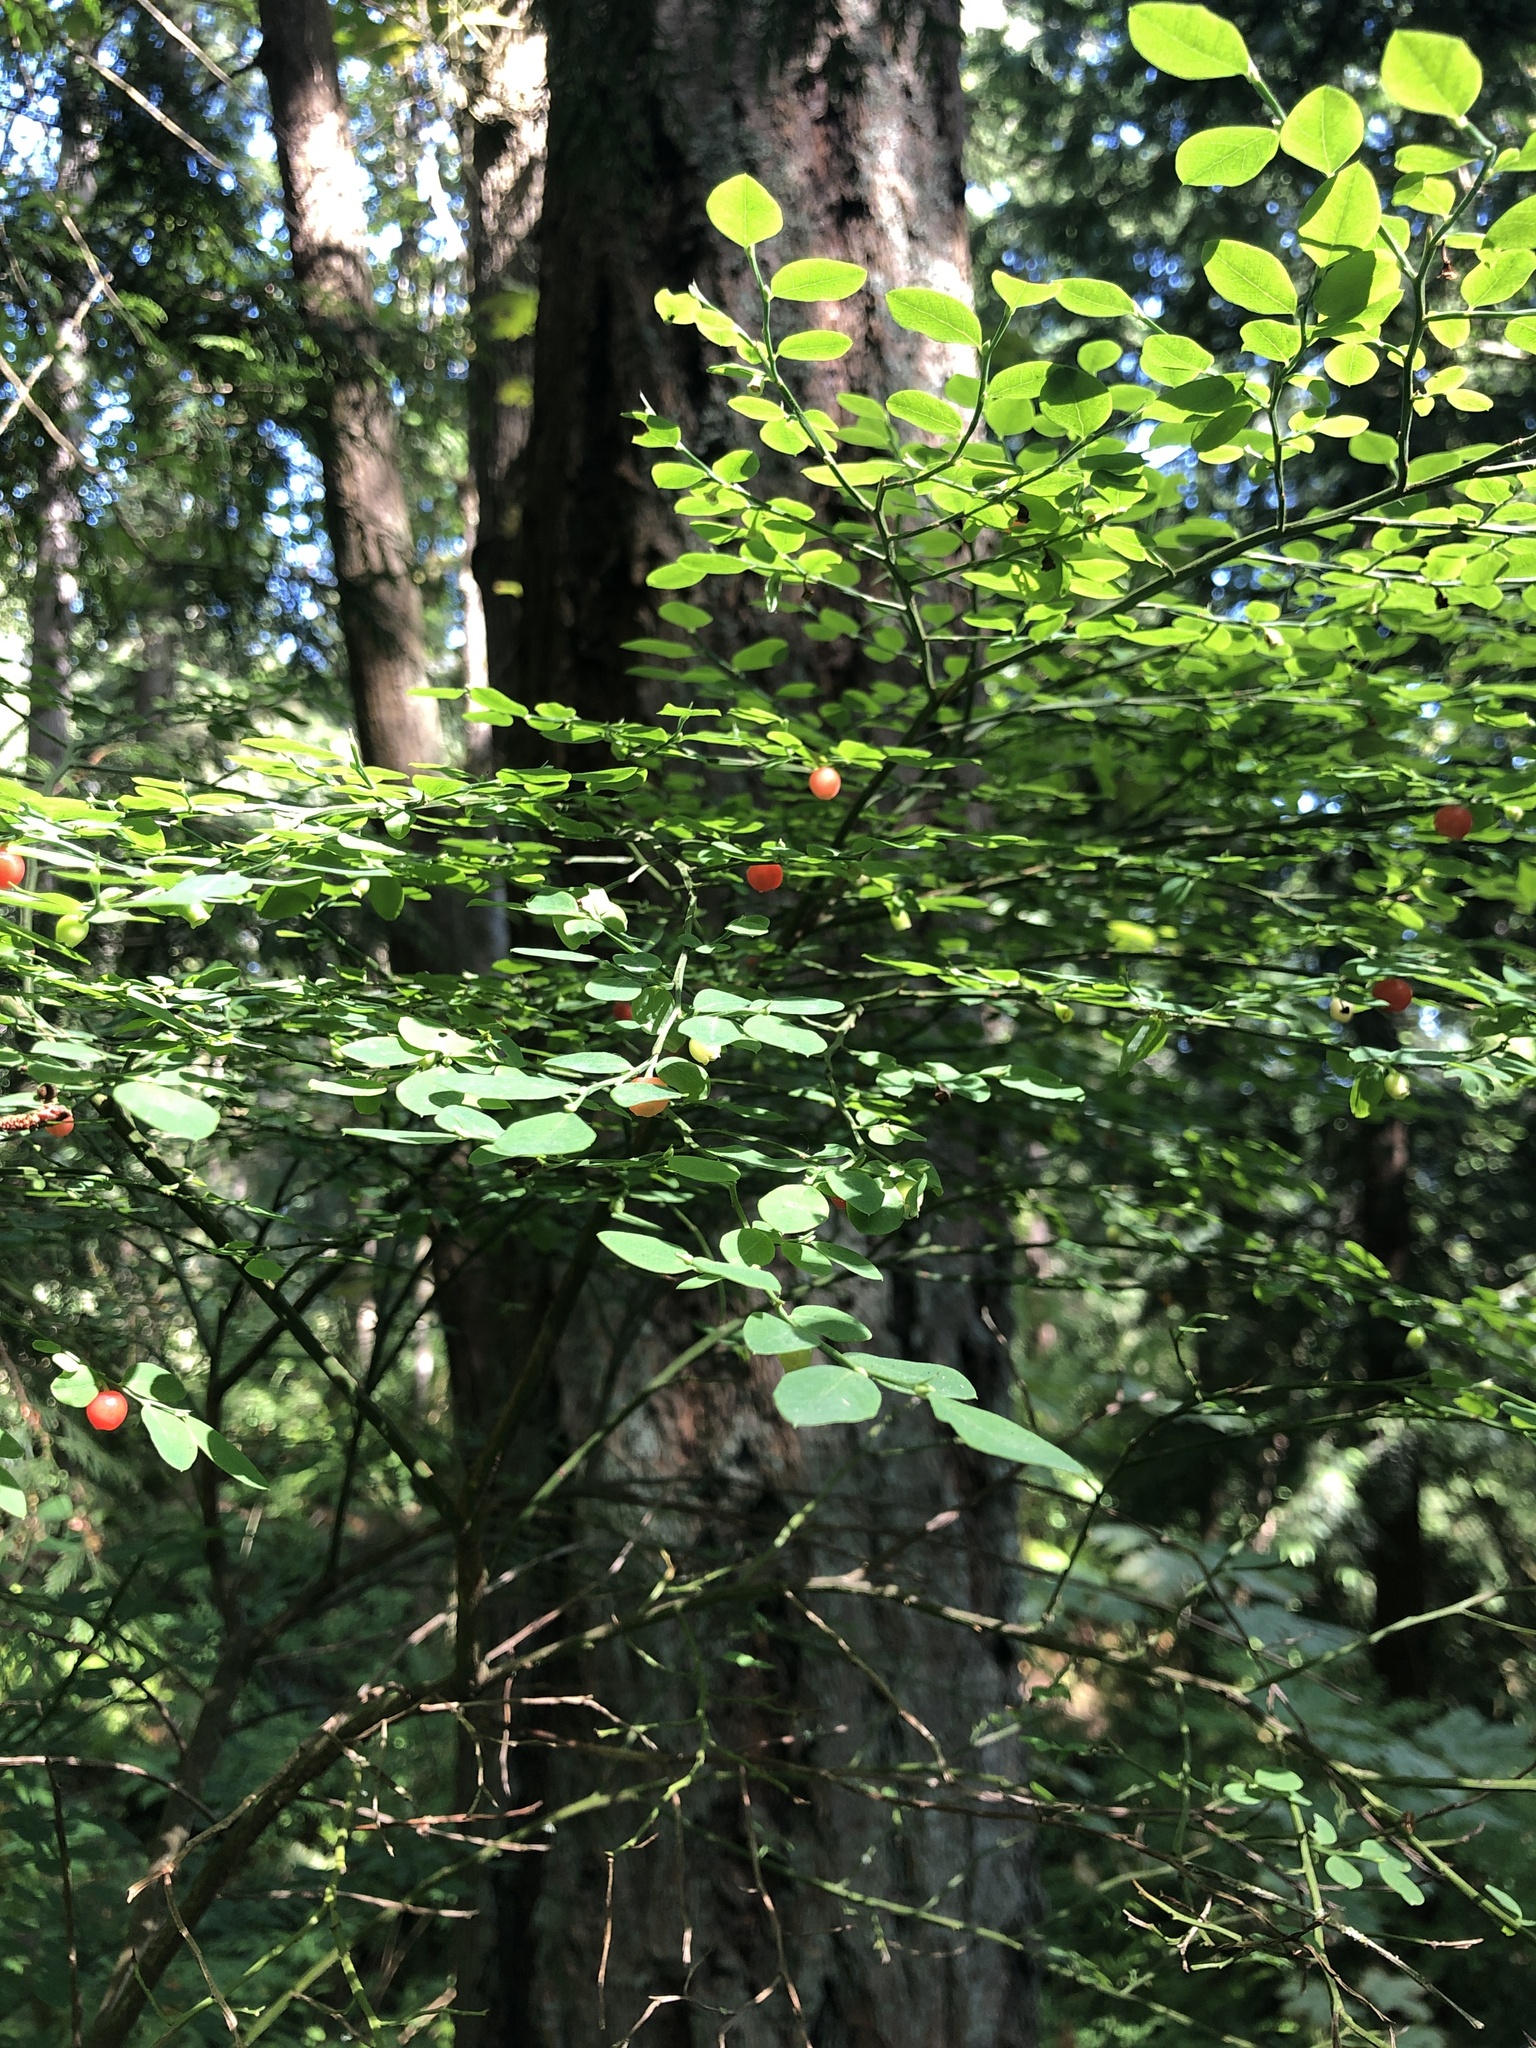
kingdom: Plantae
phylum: Tracheophyta
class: Magnoliopsida
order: Ericales
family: Ericaceae
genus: Vaccinium
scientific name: Vaccinium parvifolium
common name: Red-huckleberry
